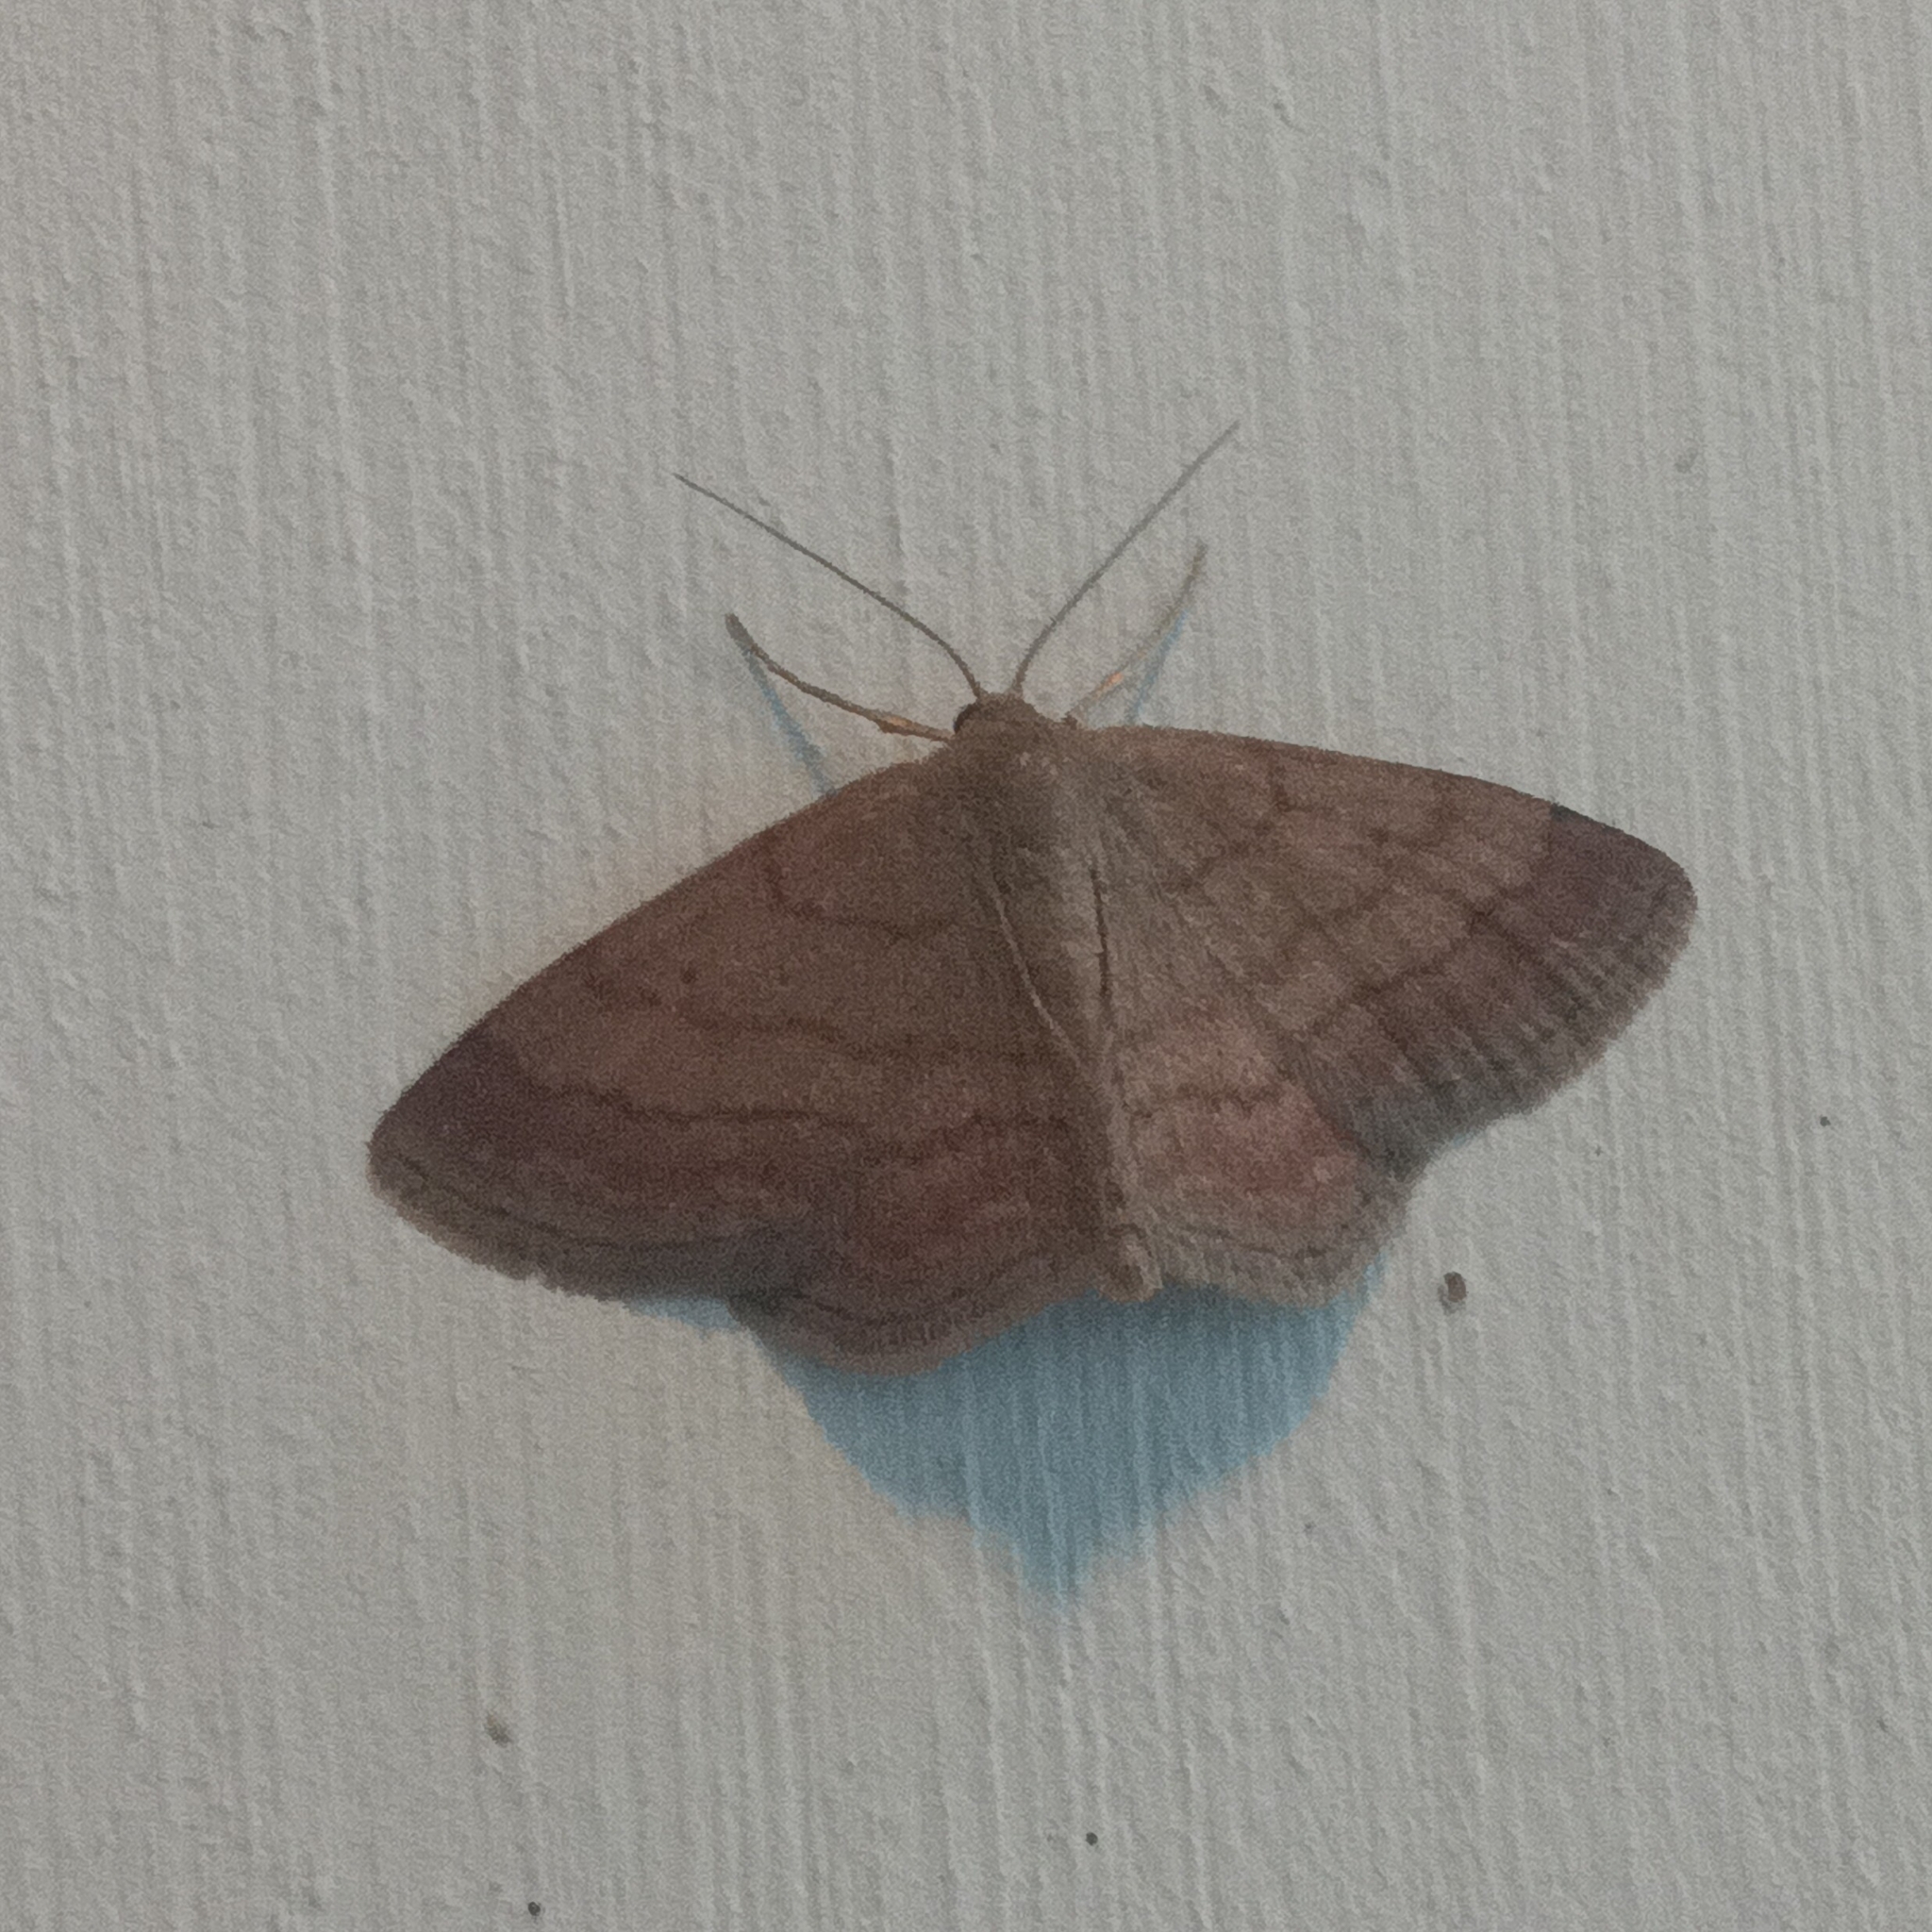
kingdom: Animalia
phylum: Arthropoda
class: Insecta
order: Lepidoptera
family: Geometridae
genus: Scopula
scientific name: Scopula rubiginata
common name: Tawny wave
